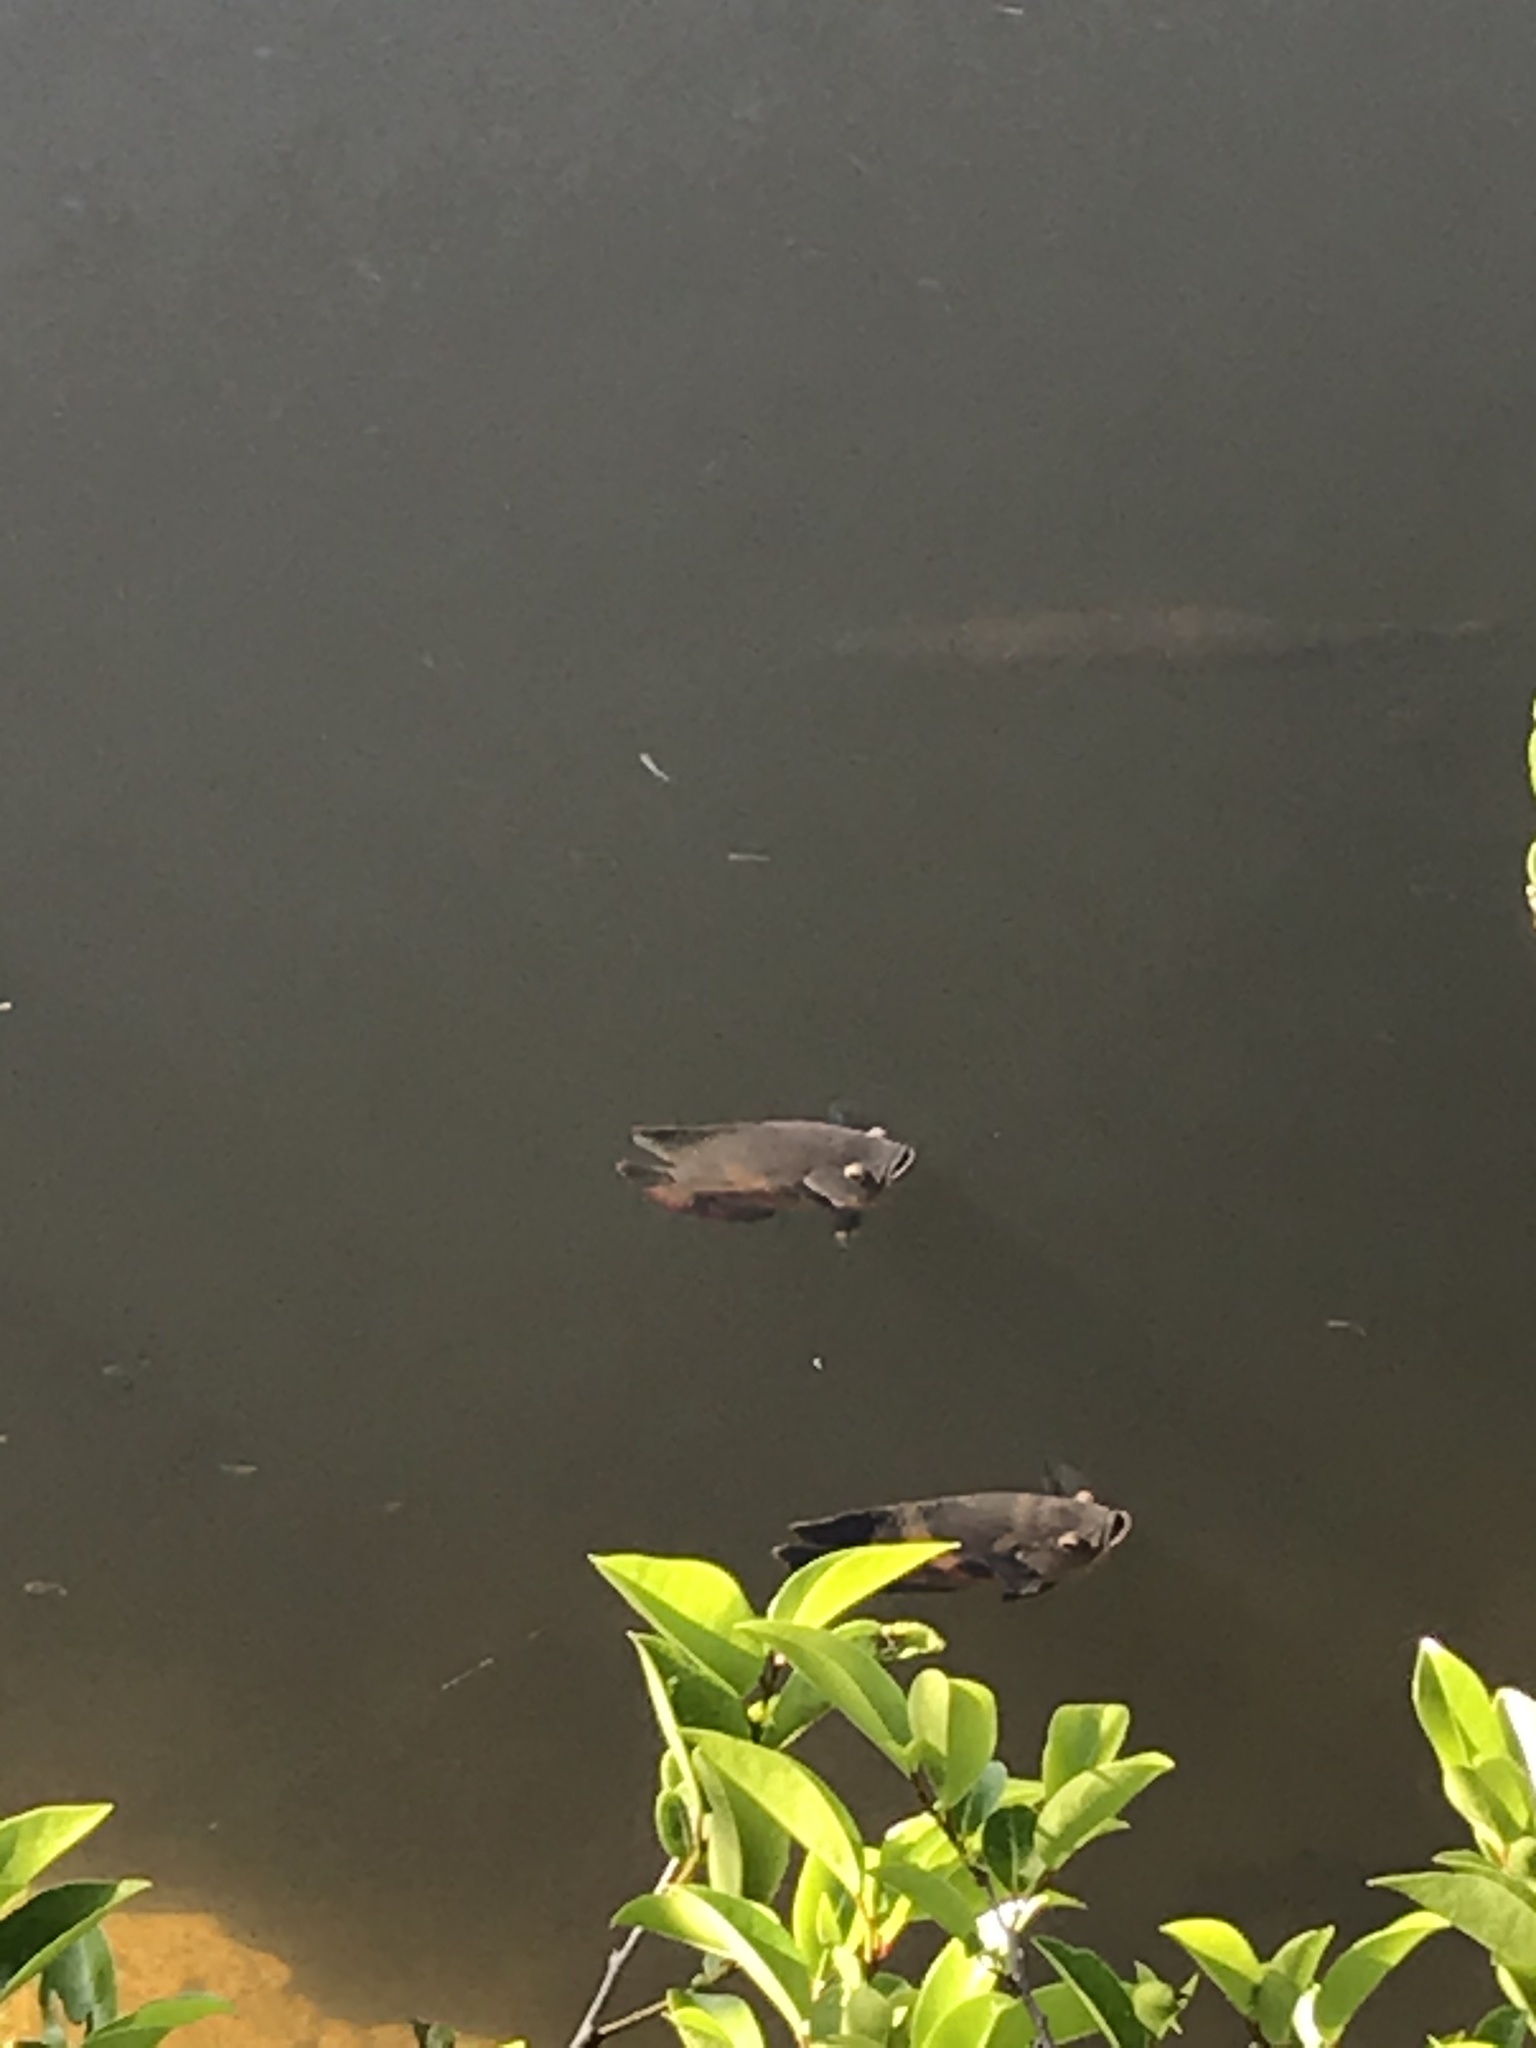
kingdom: Animalia
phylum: Chordata
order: Perciformes
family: Cichlidae
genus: Astronotus
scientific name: Astronotus ocellatus
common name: Oscar
